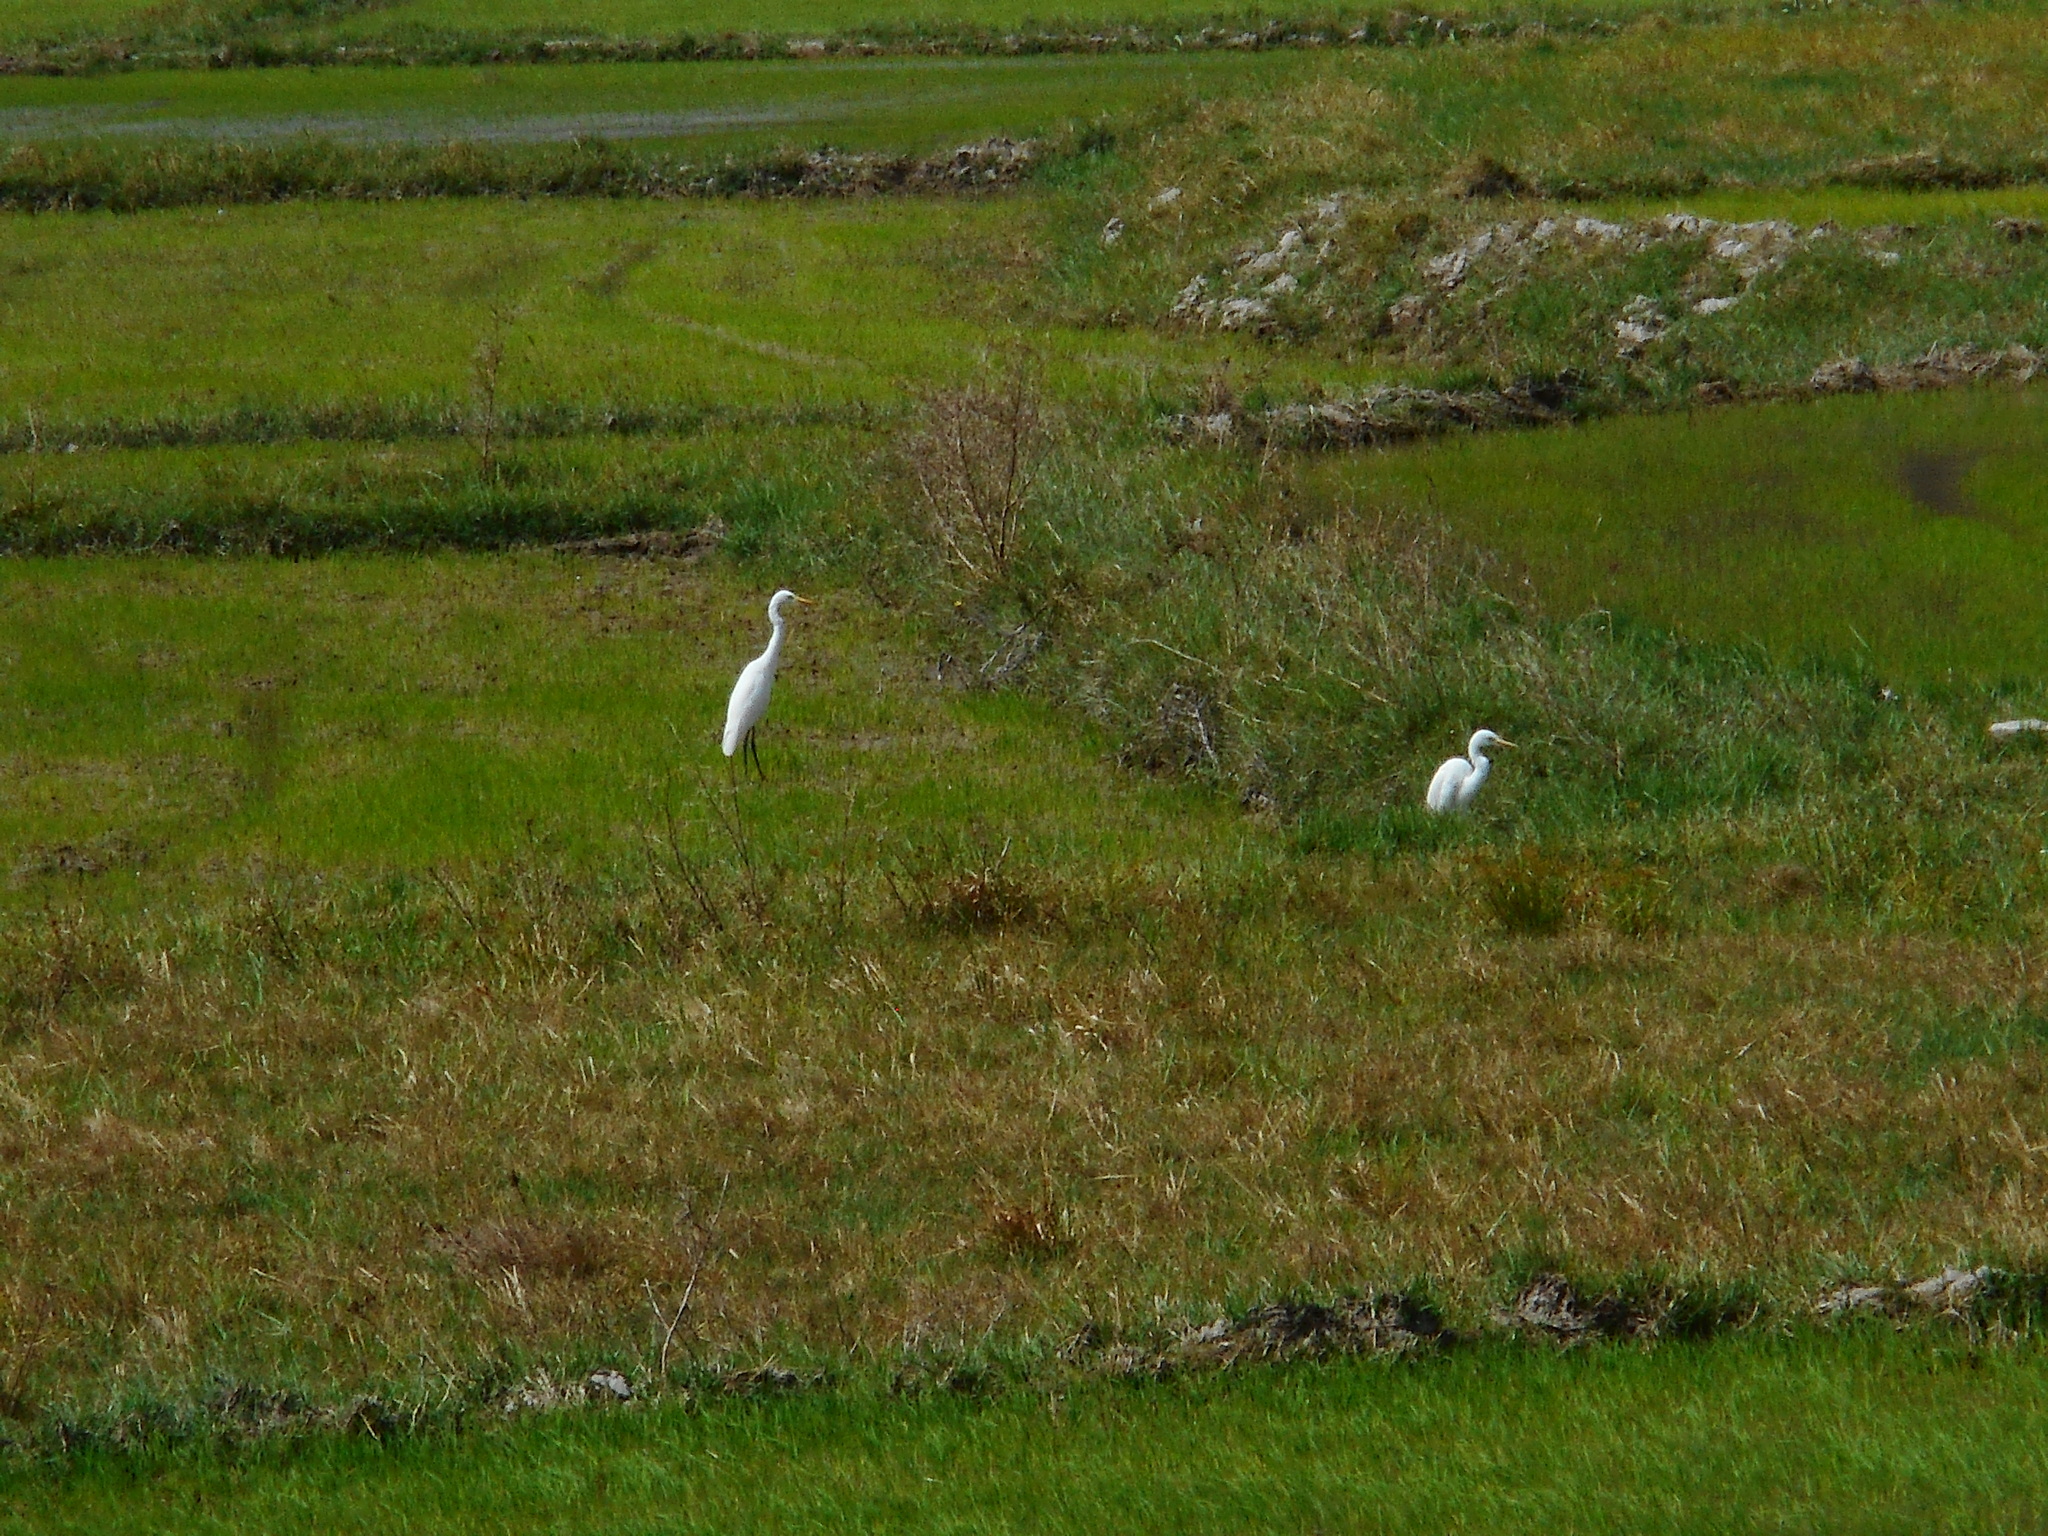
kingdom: Animalia
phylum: Chordata
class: Aves
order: Pelecaniformes
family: Ardeidae
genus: Bubulcus
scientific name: Bubulcus coromandus
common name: Eastern cattle egret
